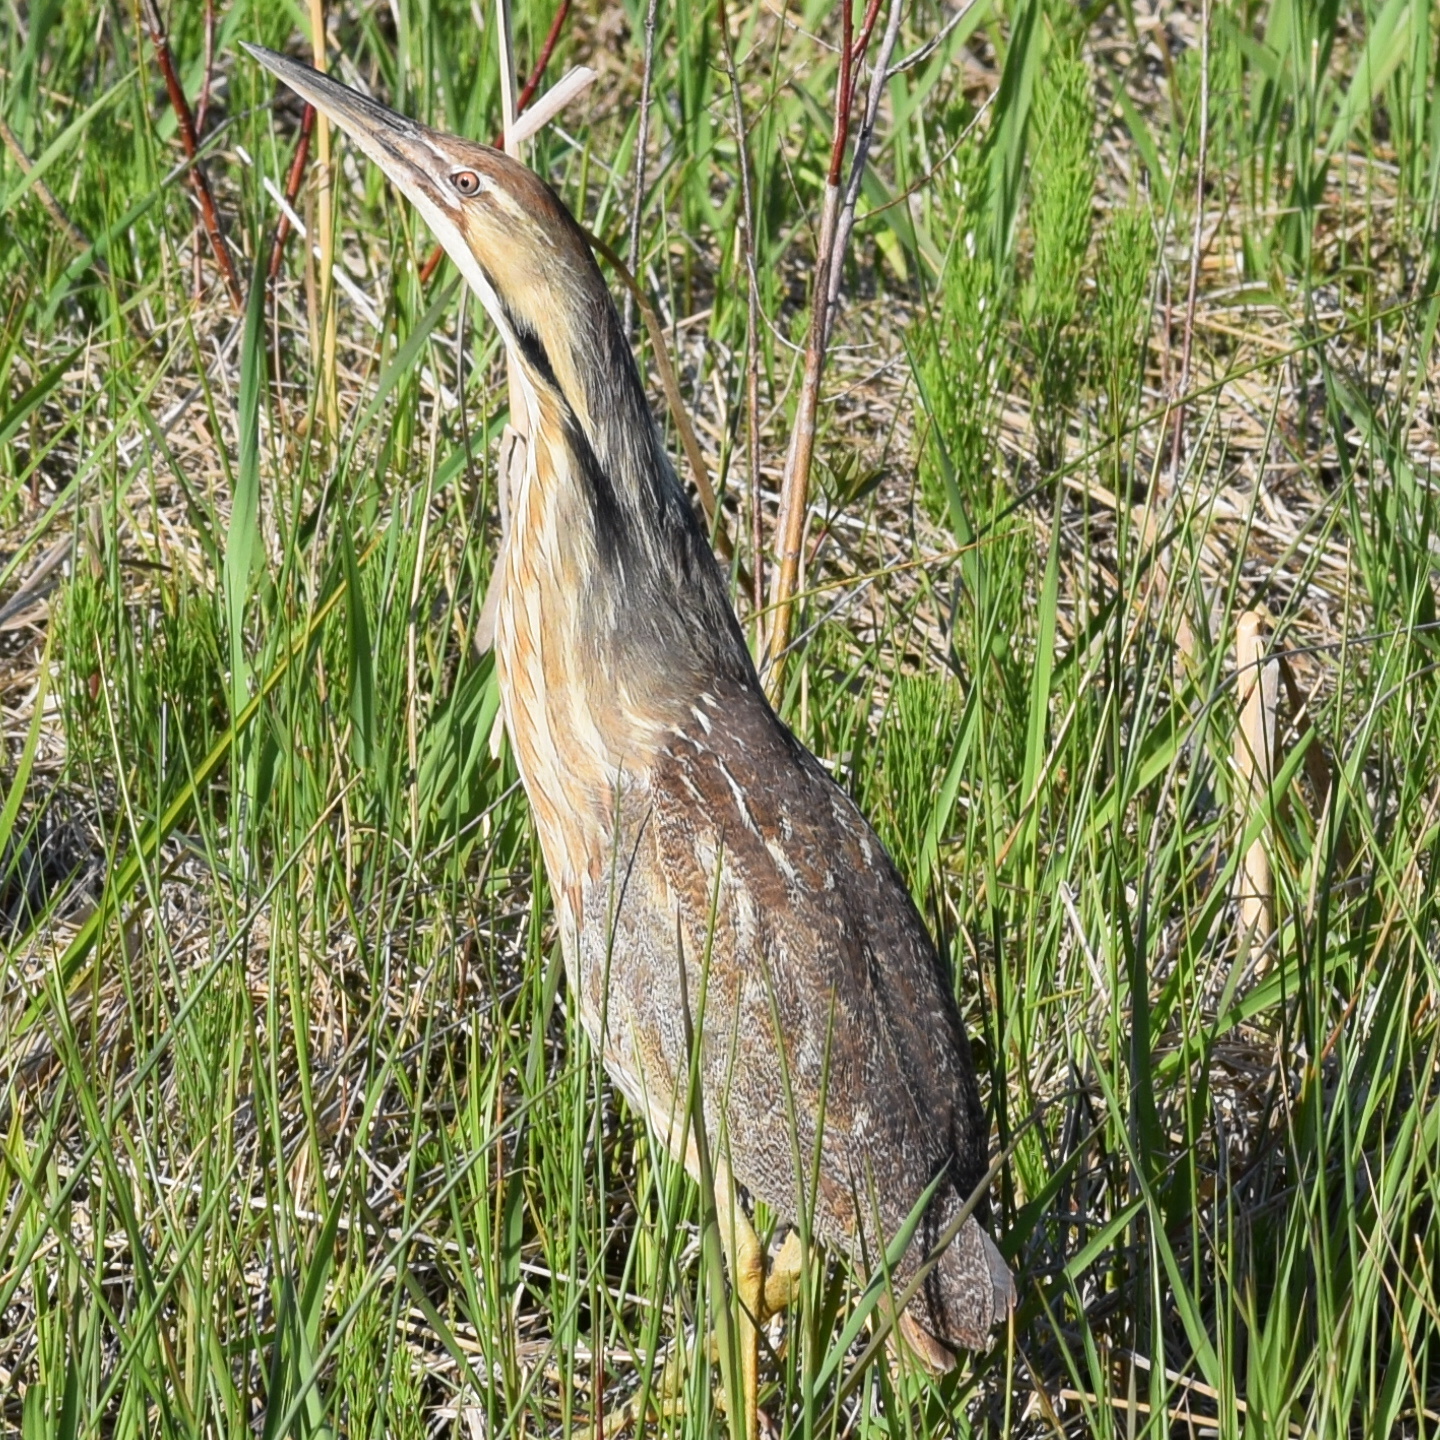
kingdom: Animalia
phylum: Chordata
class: Aves
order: Pelecaniformes
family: Ardeidae
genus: Botaurus
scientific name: Botaurus lentiginosus
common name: American bittern
